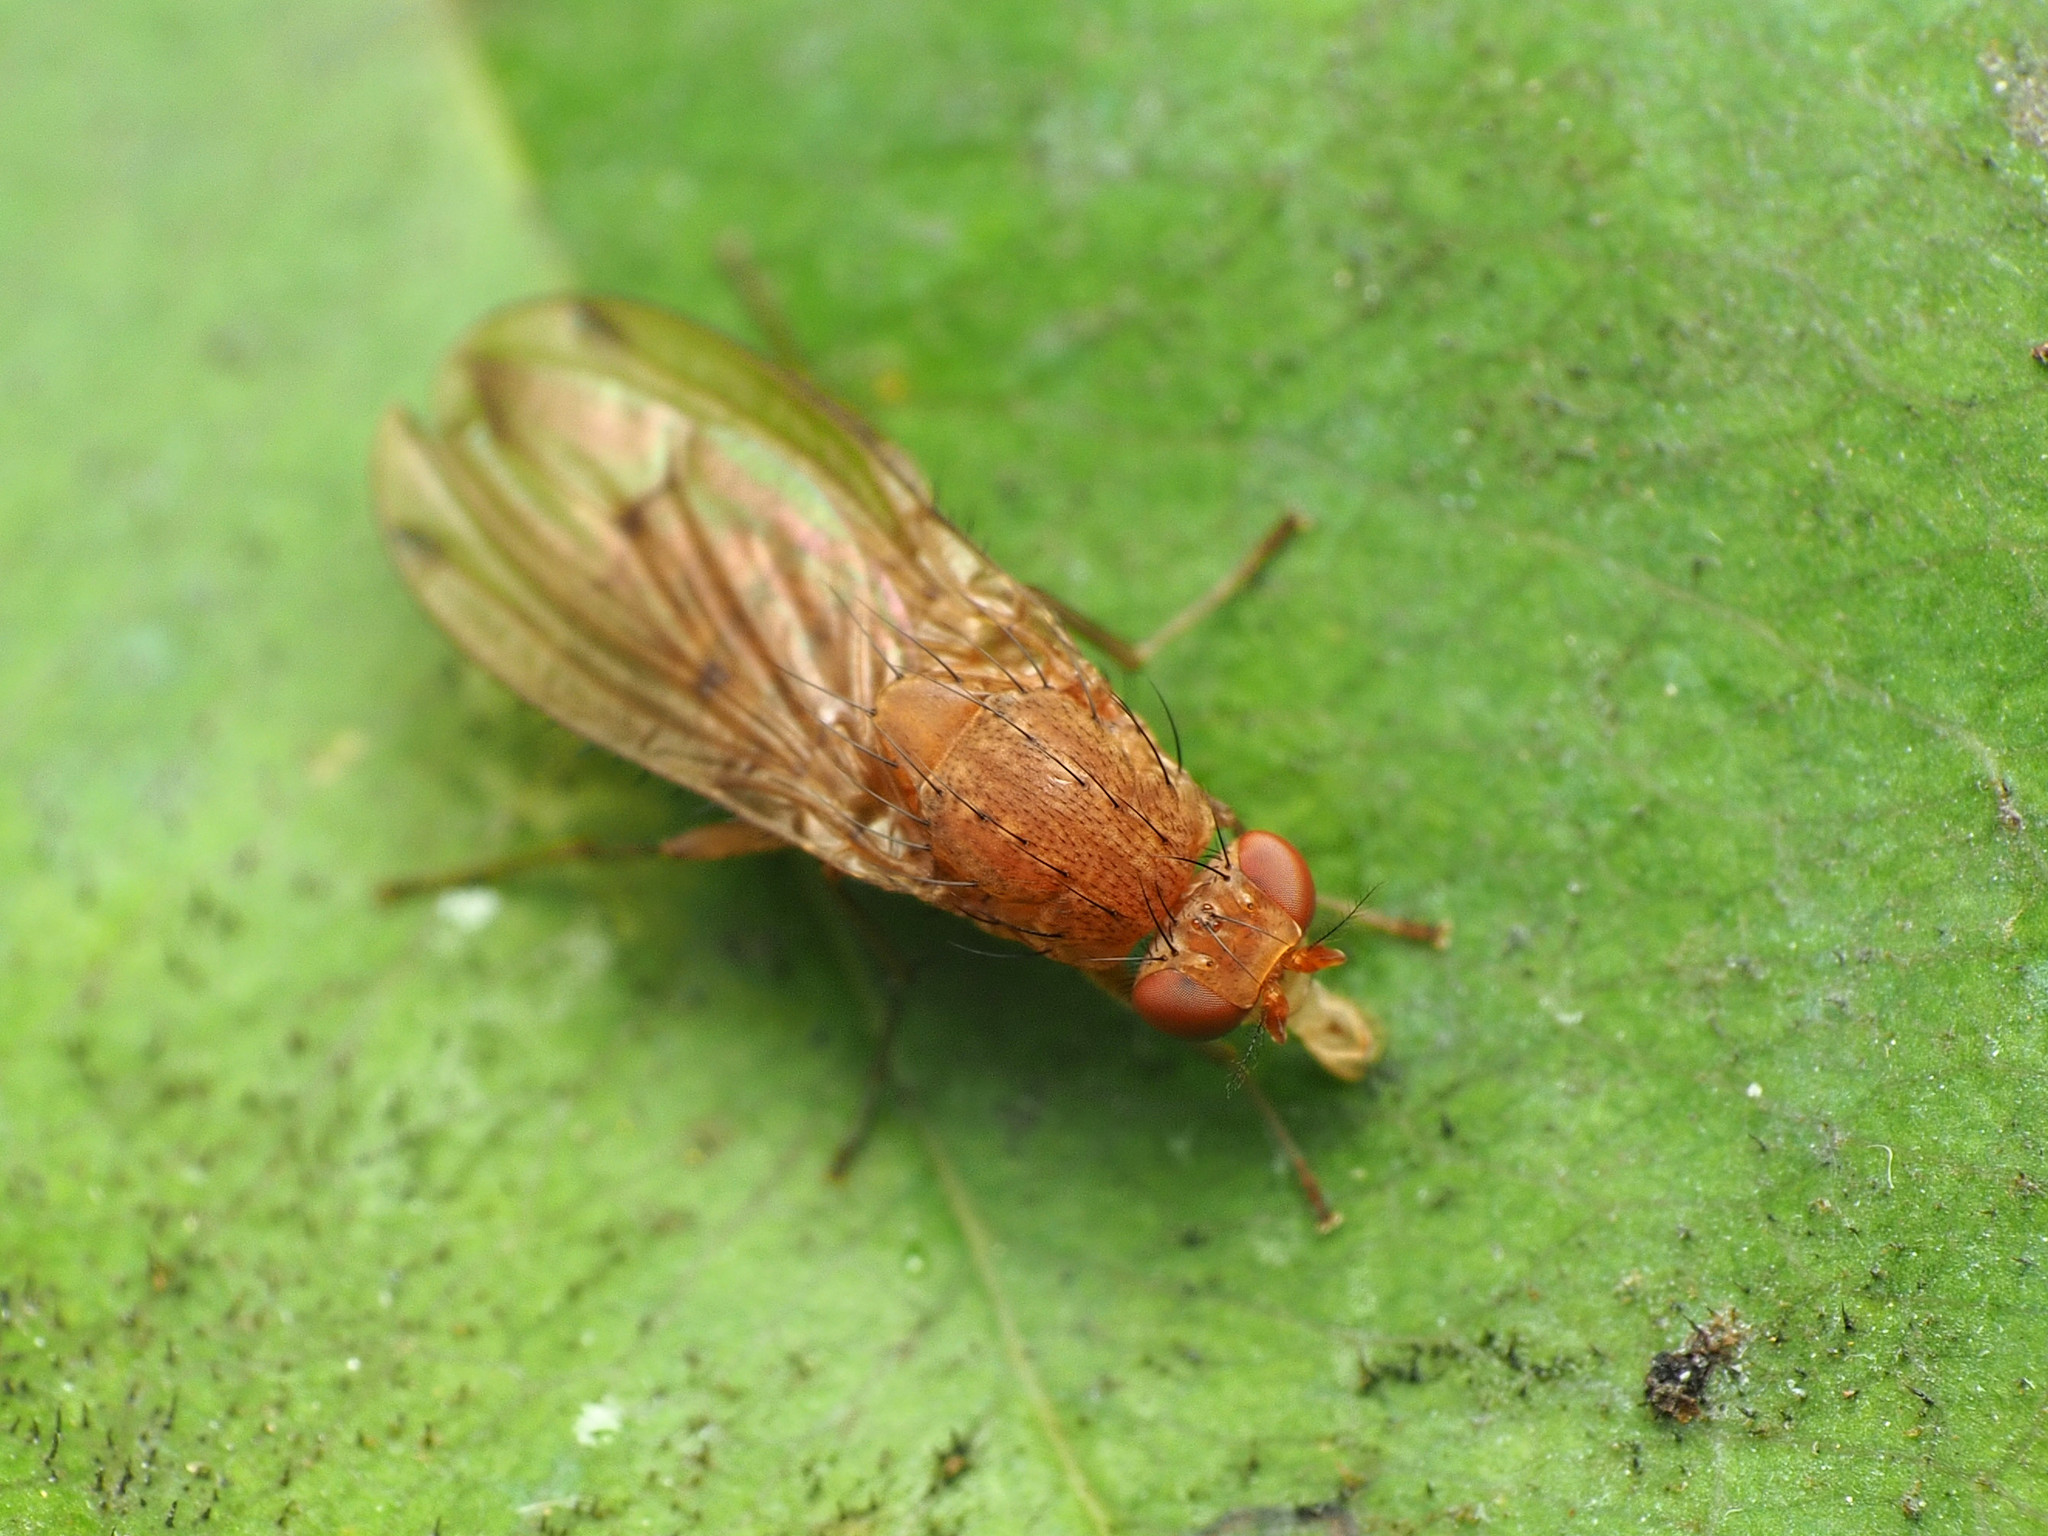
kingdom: Animalia
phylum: Arthropoda
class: Insecta
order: Diptera
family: Heleomyzidae
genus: Suillia
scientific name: Suillia plumata
